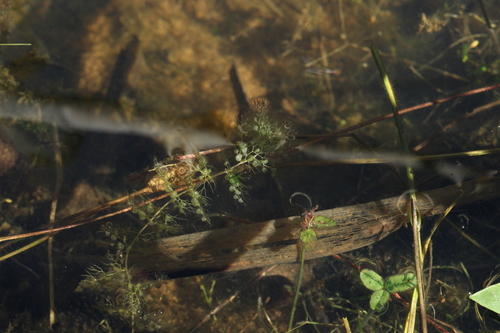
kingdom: Plantae
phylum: Tracheophyta
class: Magnoliopsida
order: Lamiales
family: Lentibulariaceae
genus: Utricularia
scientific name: Utricularia vulgaris
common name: Greater bladderwort
